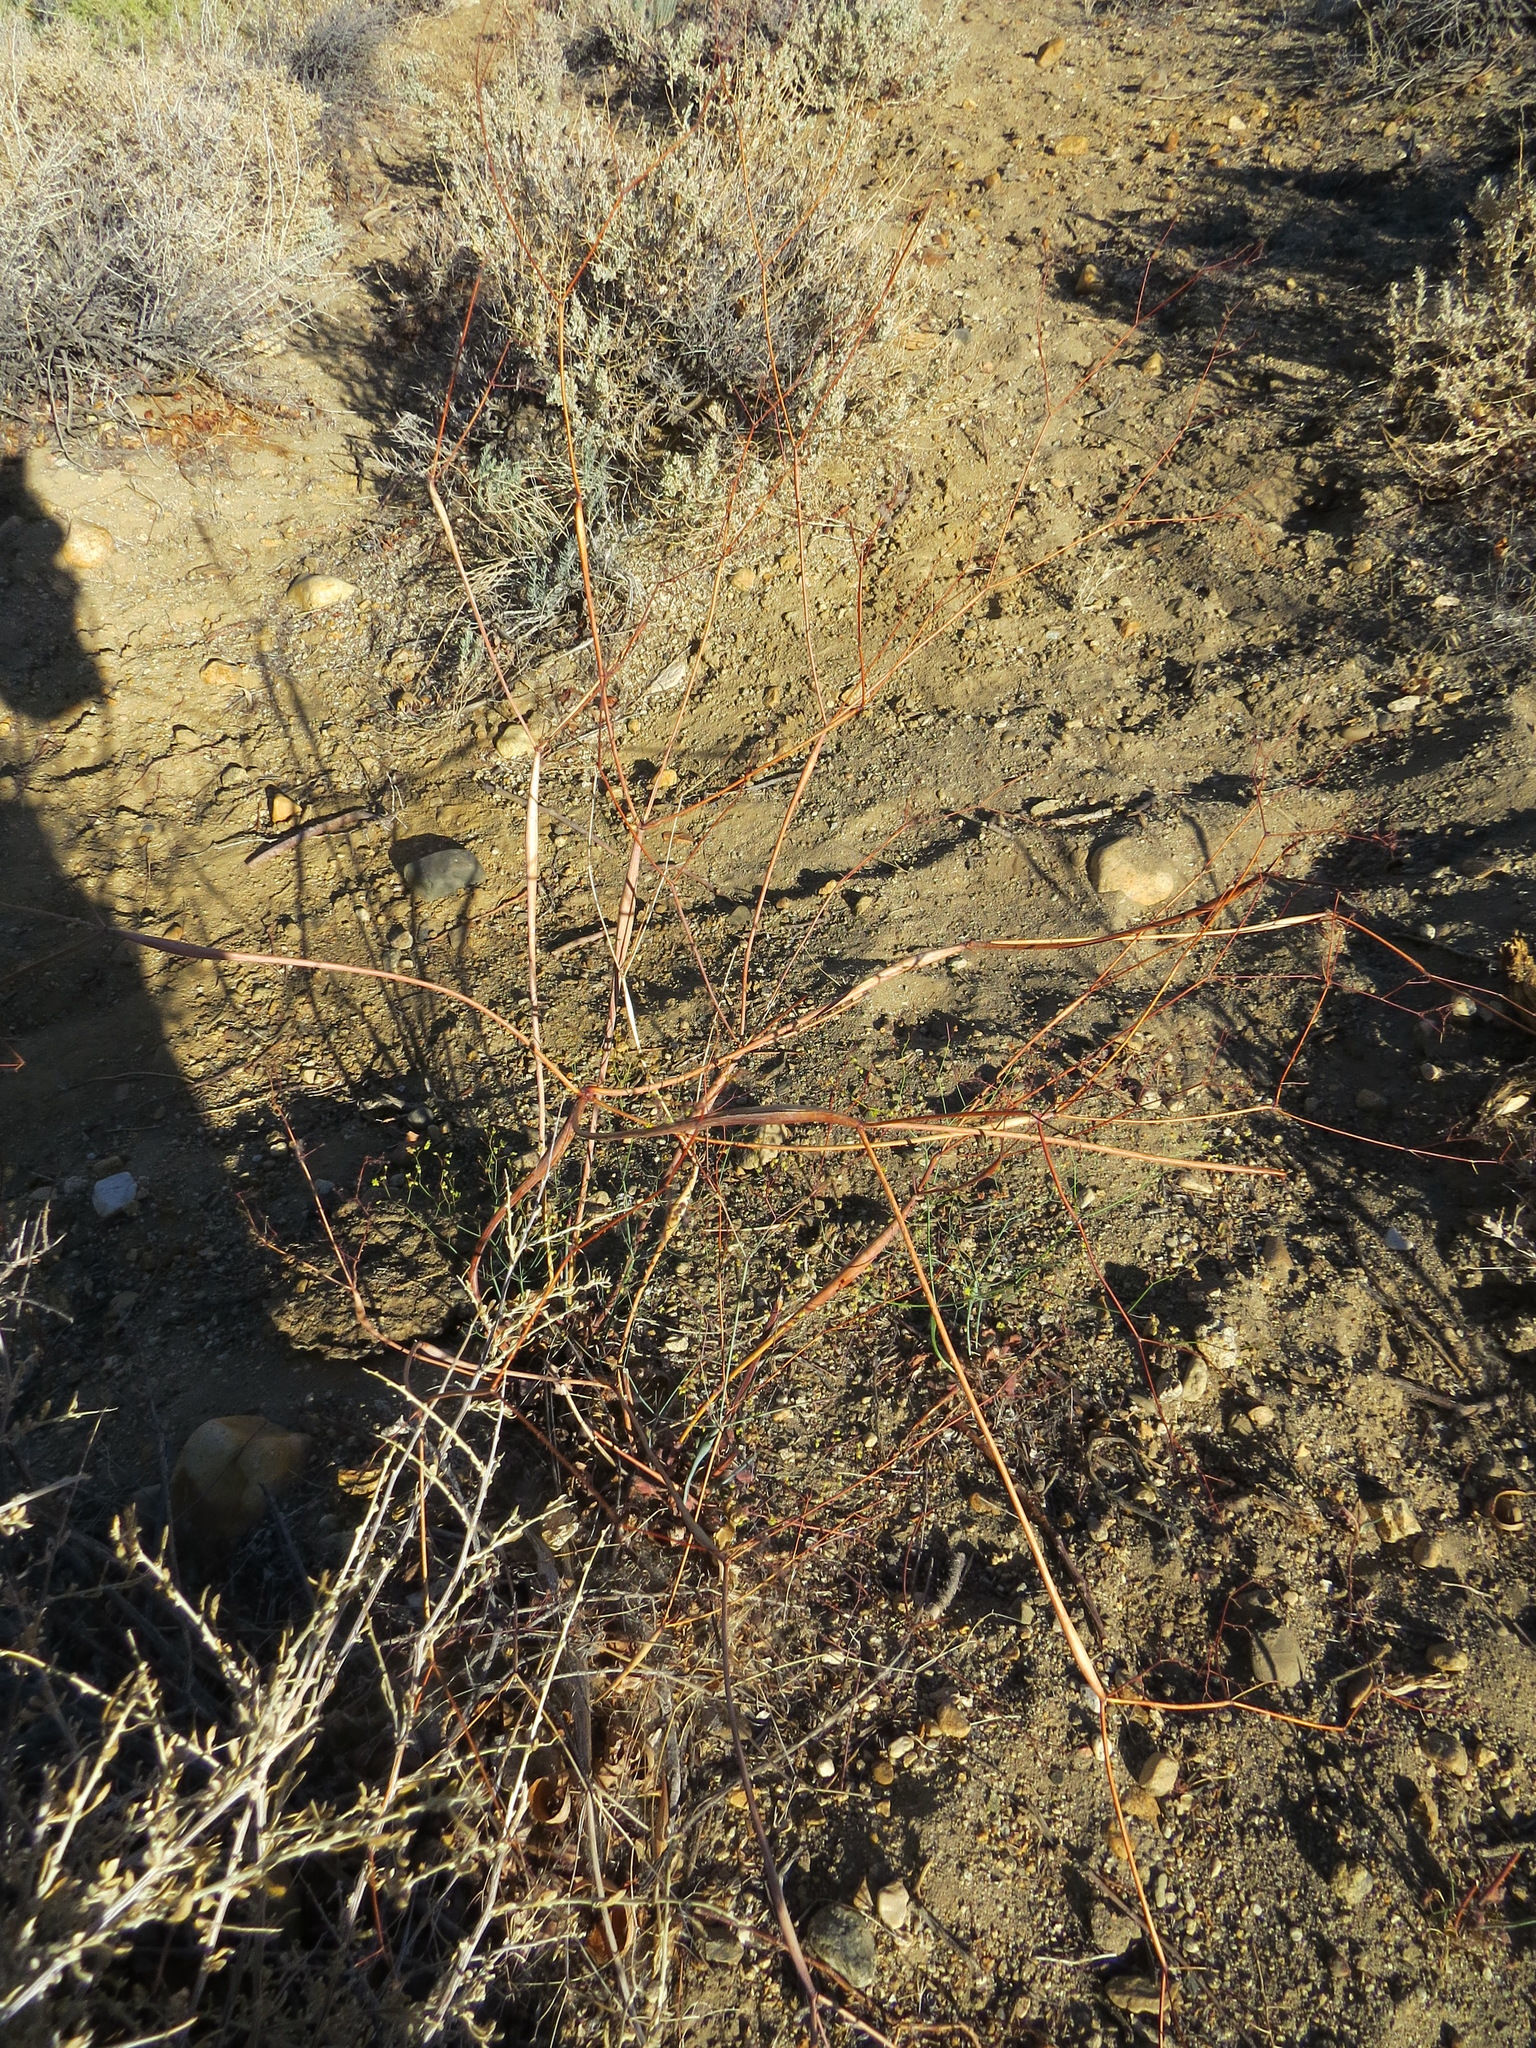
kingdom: Plantae
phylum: Tracheophyta
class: Magnoliopsida
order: Caryophyllales
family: Polygonaceae
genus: Eriogonum
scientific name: Eriogonum inflatum
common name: Desert trumpet
